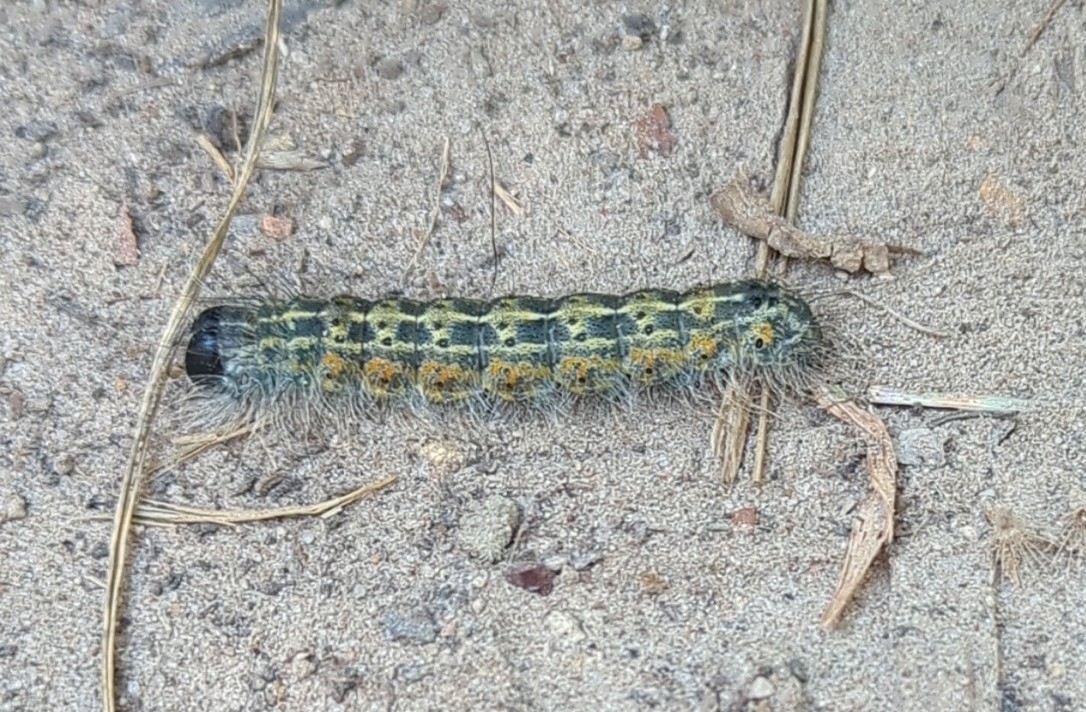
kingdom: Animalia
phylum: Arthropoda
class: Insecta
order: Lepidoptera
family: Noctuidae
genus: Acronicta
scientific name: Acronicta lobeliae
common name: Greater oak dagger
